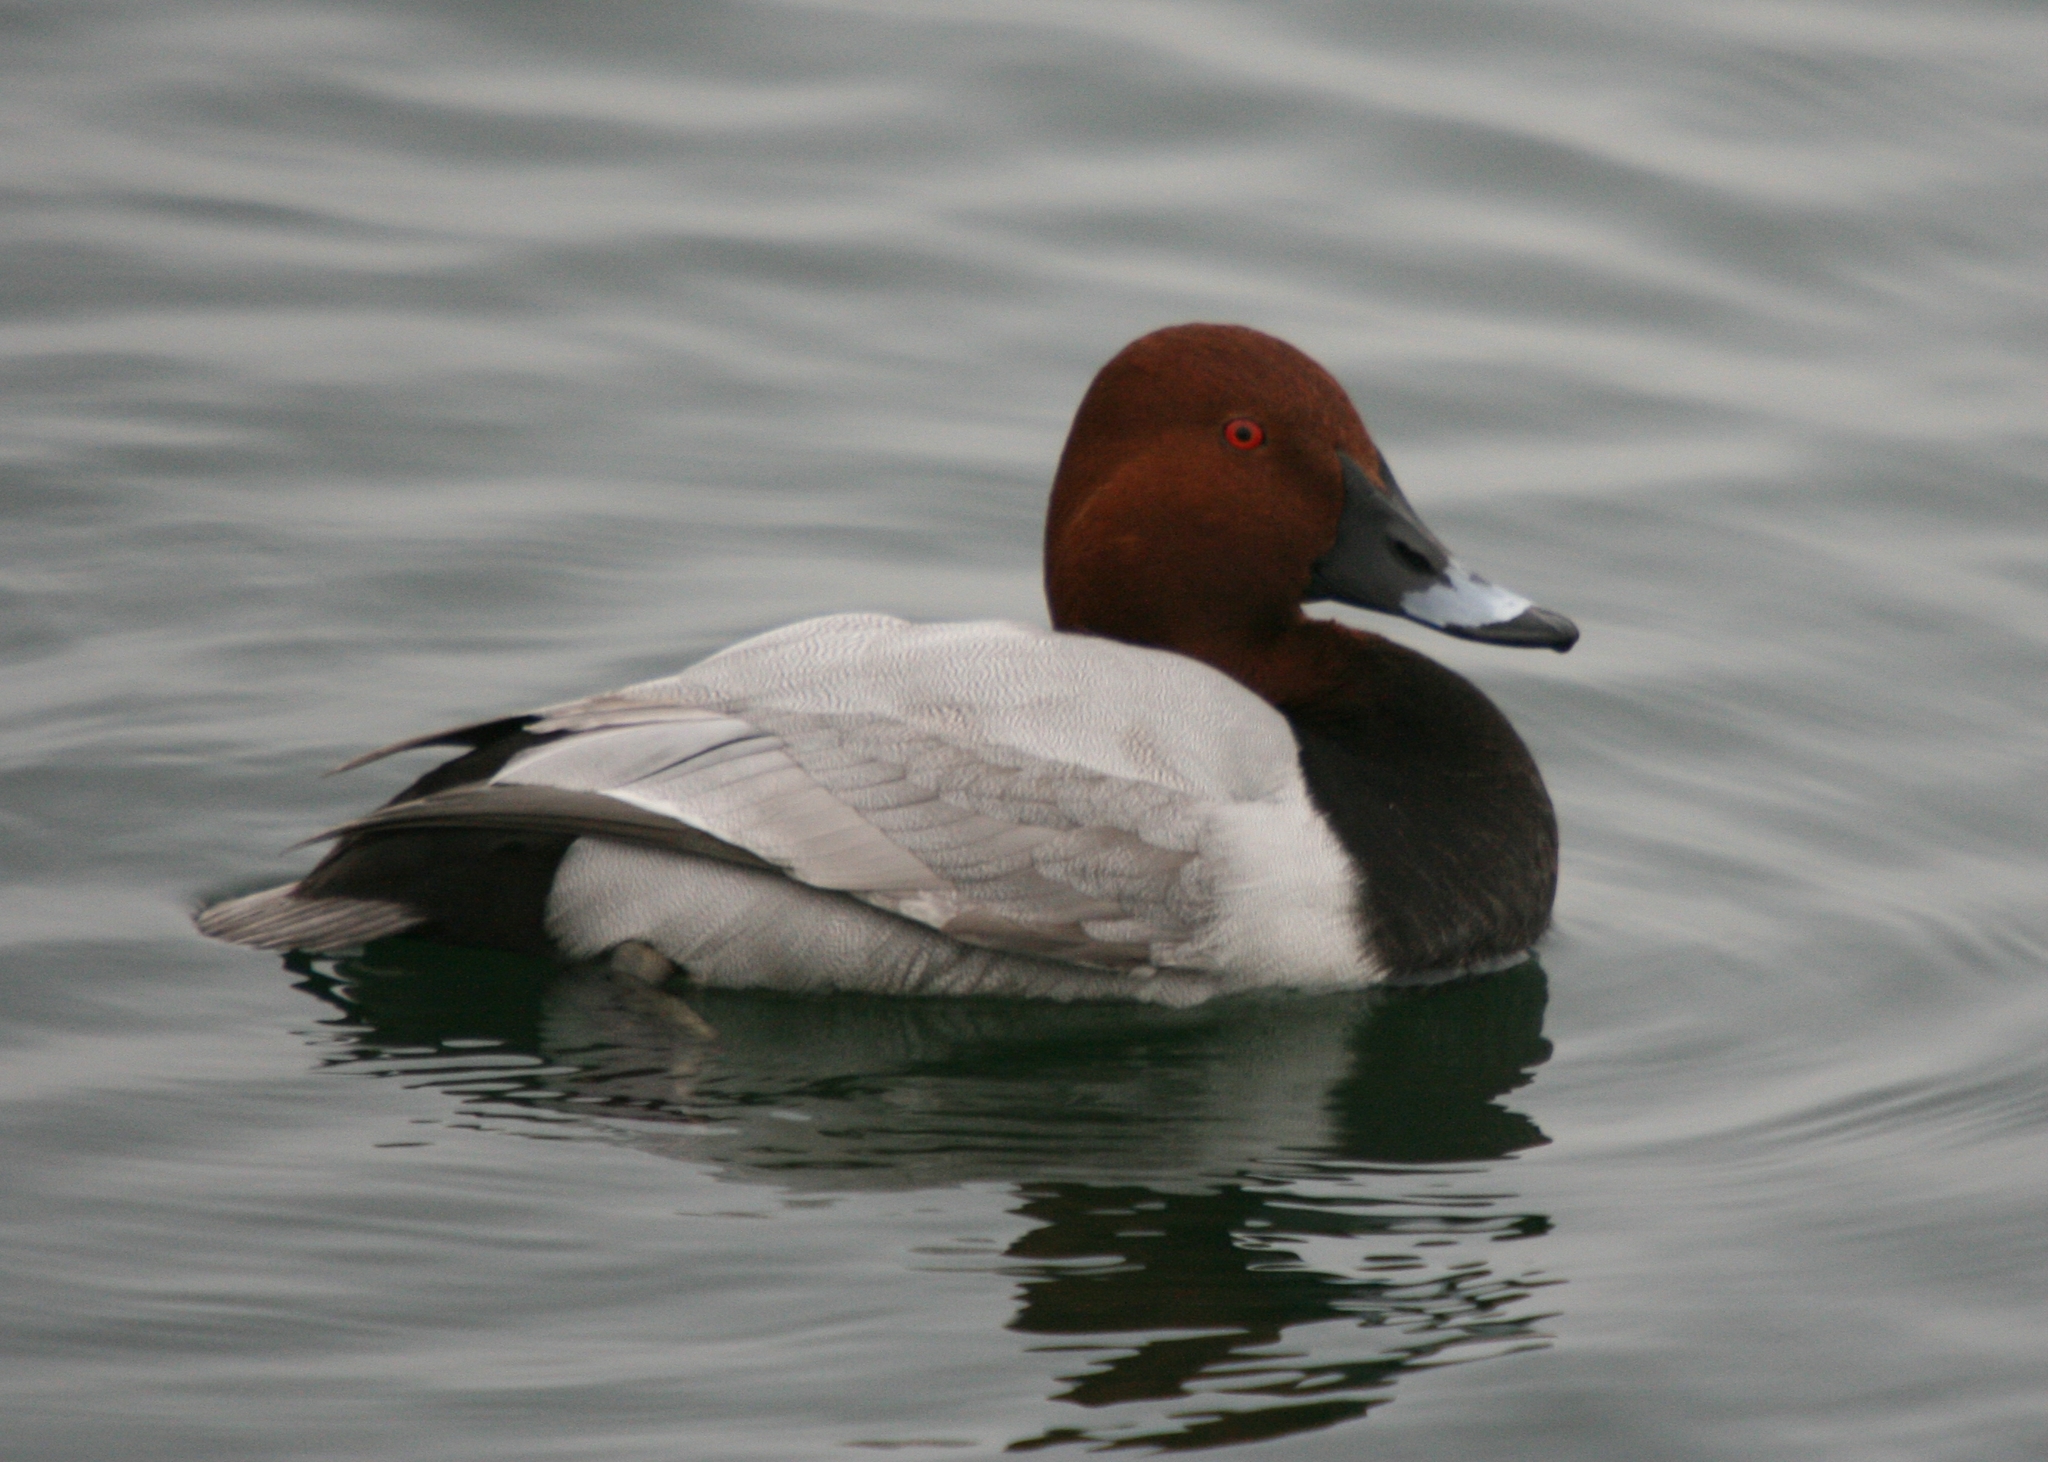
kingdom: Animalia
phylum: Chordata
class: Aves
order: Anseriformes
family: Anatidae
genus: Aythya
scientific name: Aythya ferina
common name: Common pochard
